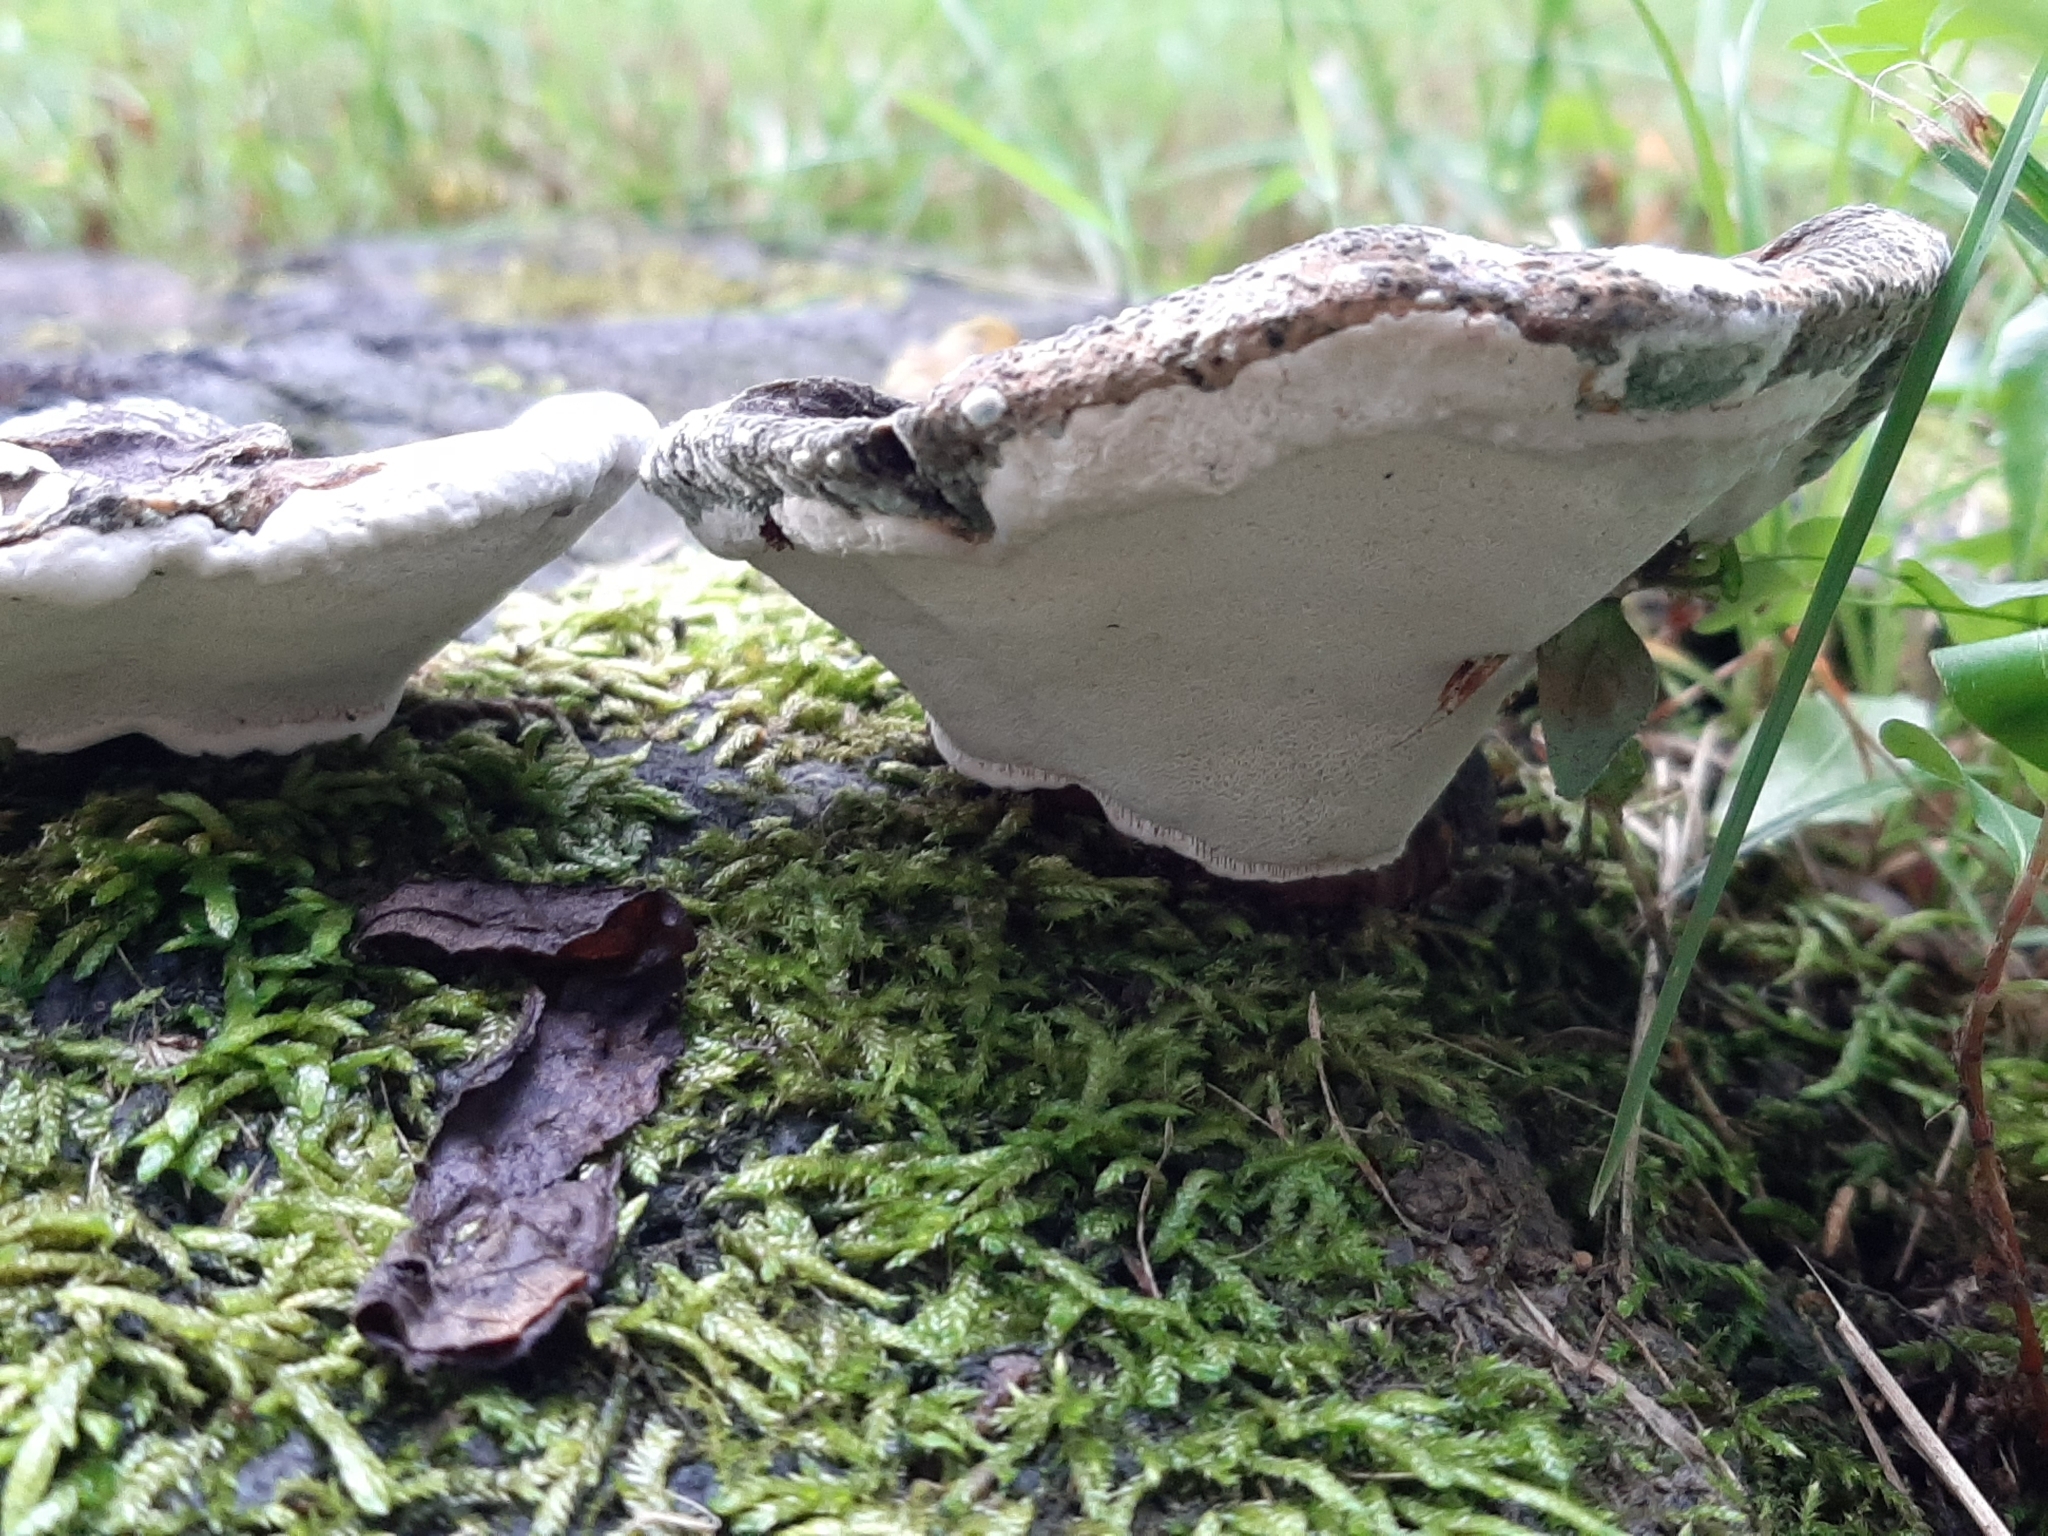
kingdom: Fungi
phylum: Basidiomycota
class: Agaricomycetes
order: Polyporales
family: Polyporaceae
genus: Ganoderma
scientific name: Ganoderma lobatum
